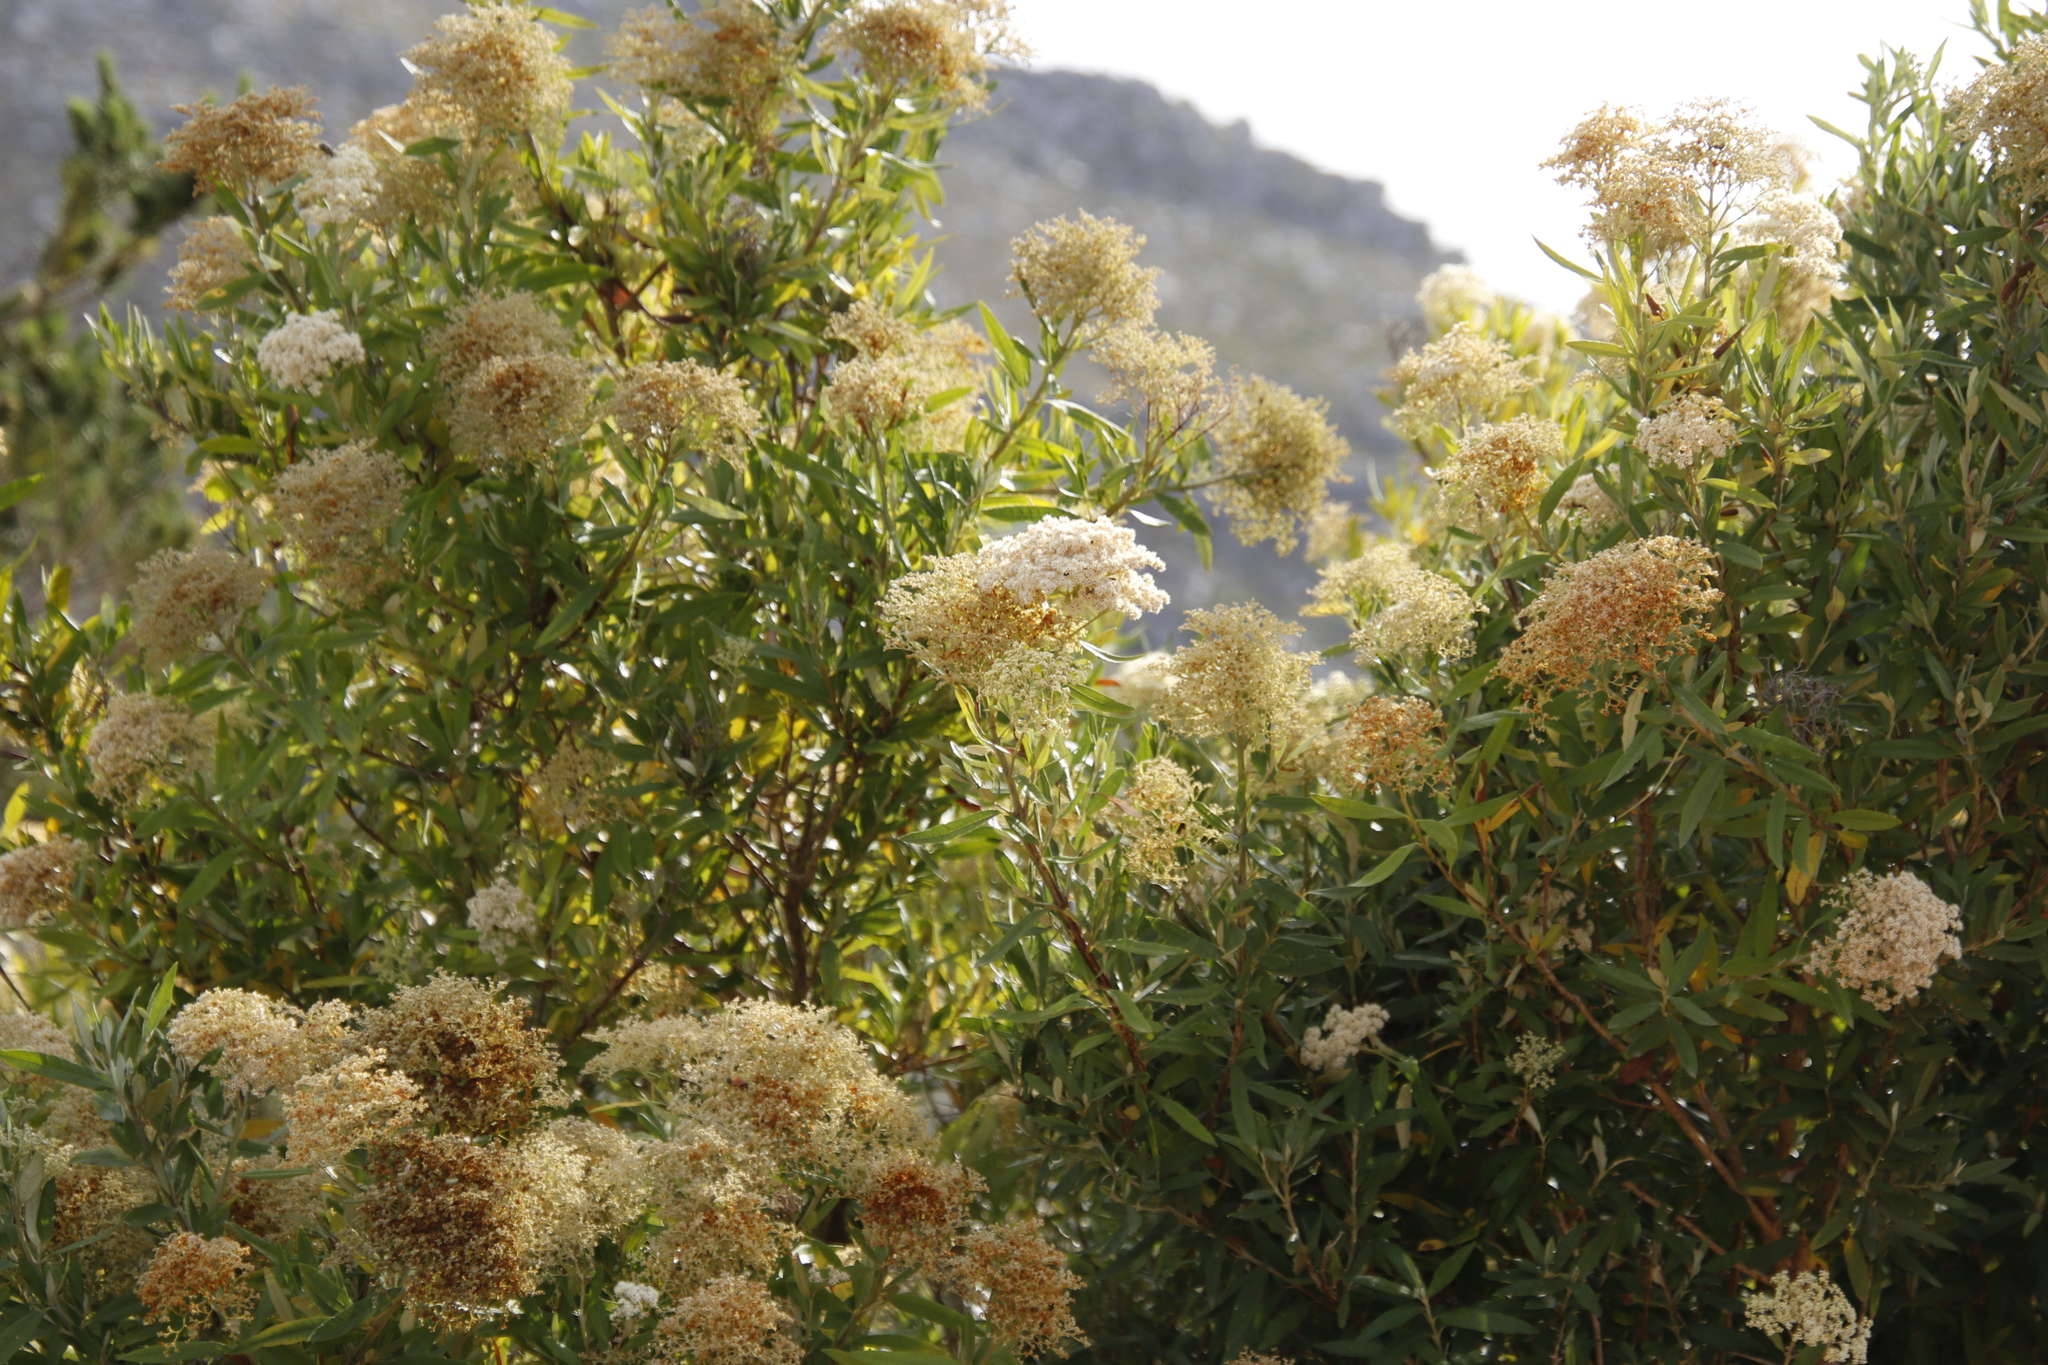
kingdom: Plantae
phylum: Tracheophyta
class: Magnoliopsida
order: Lamiales
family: Scrophulariaceae
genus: Buddleja
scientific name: Buddleja saligna
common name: False olive
